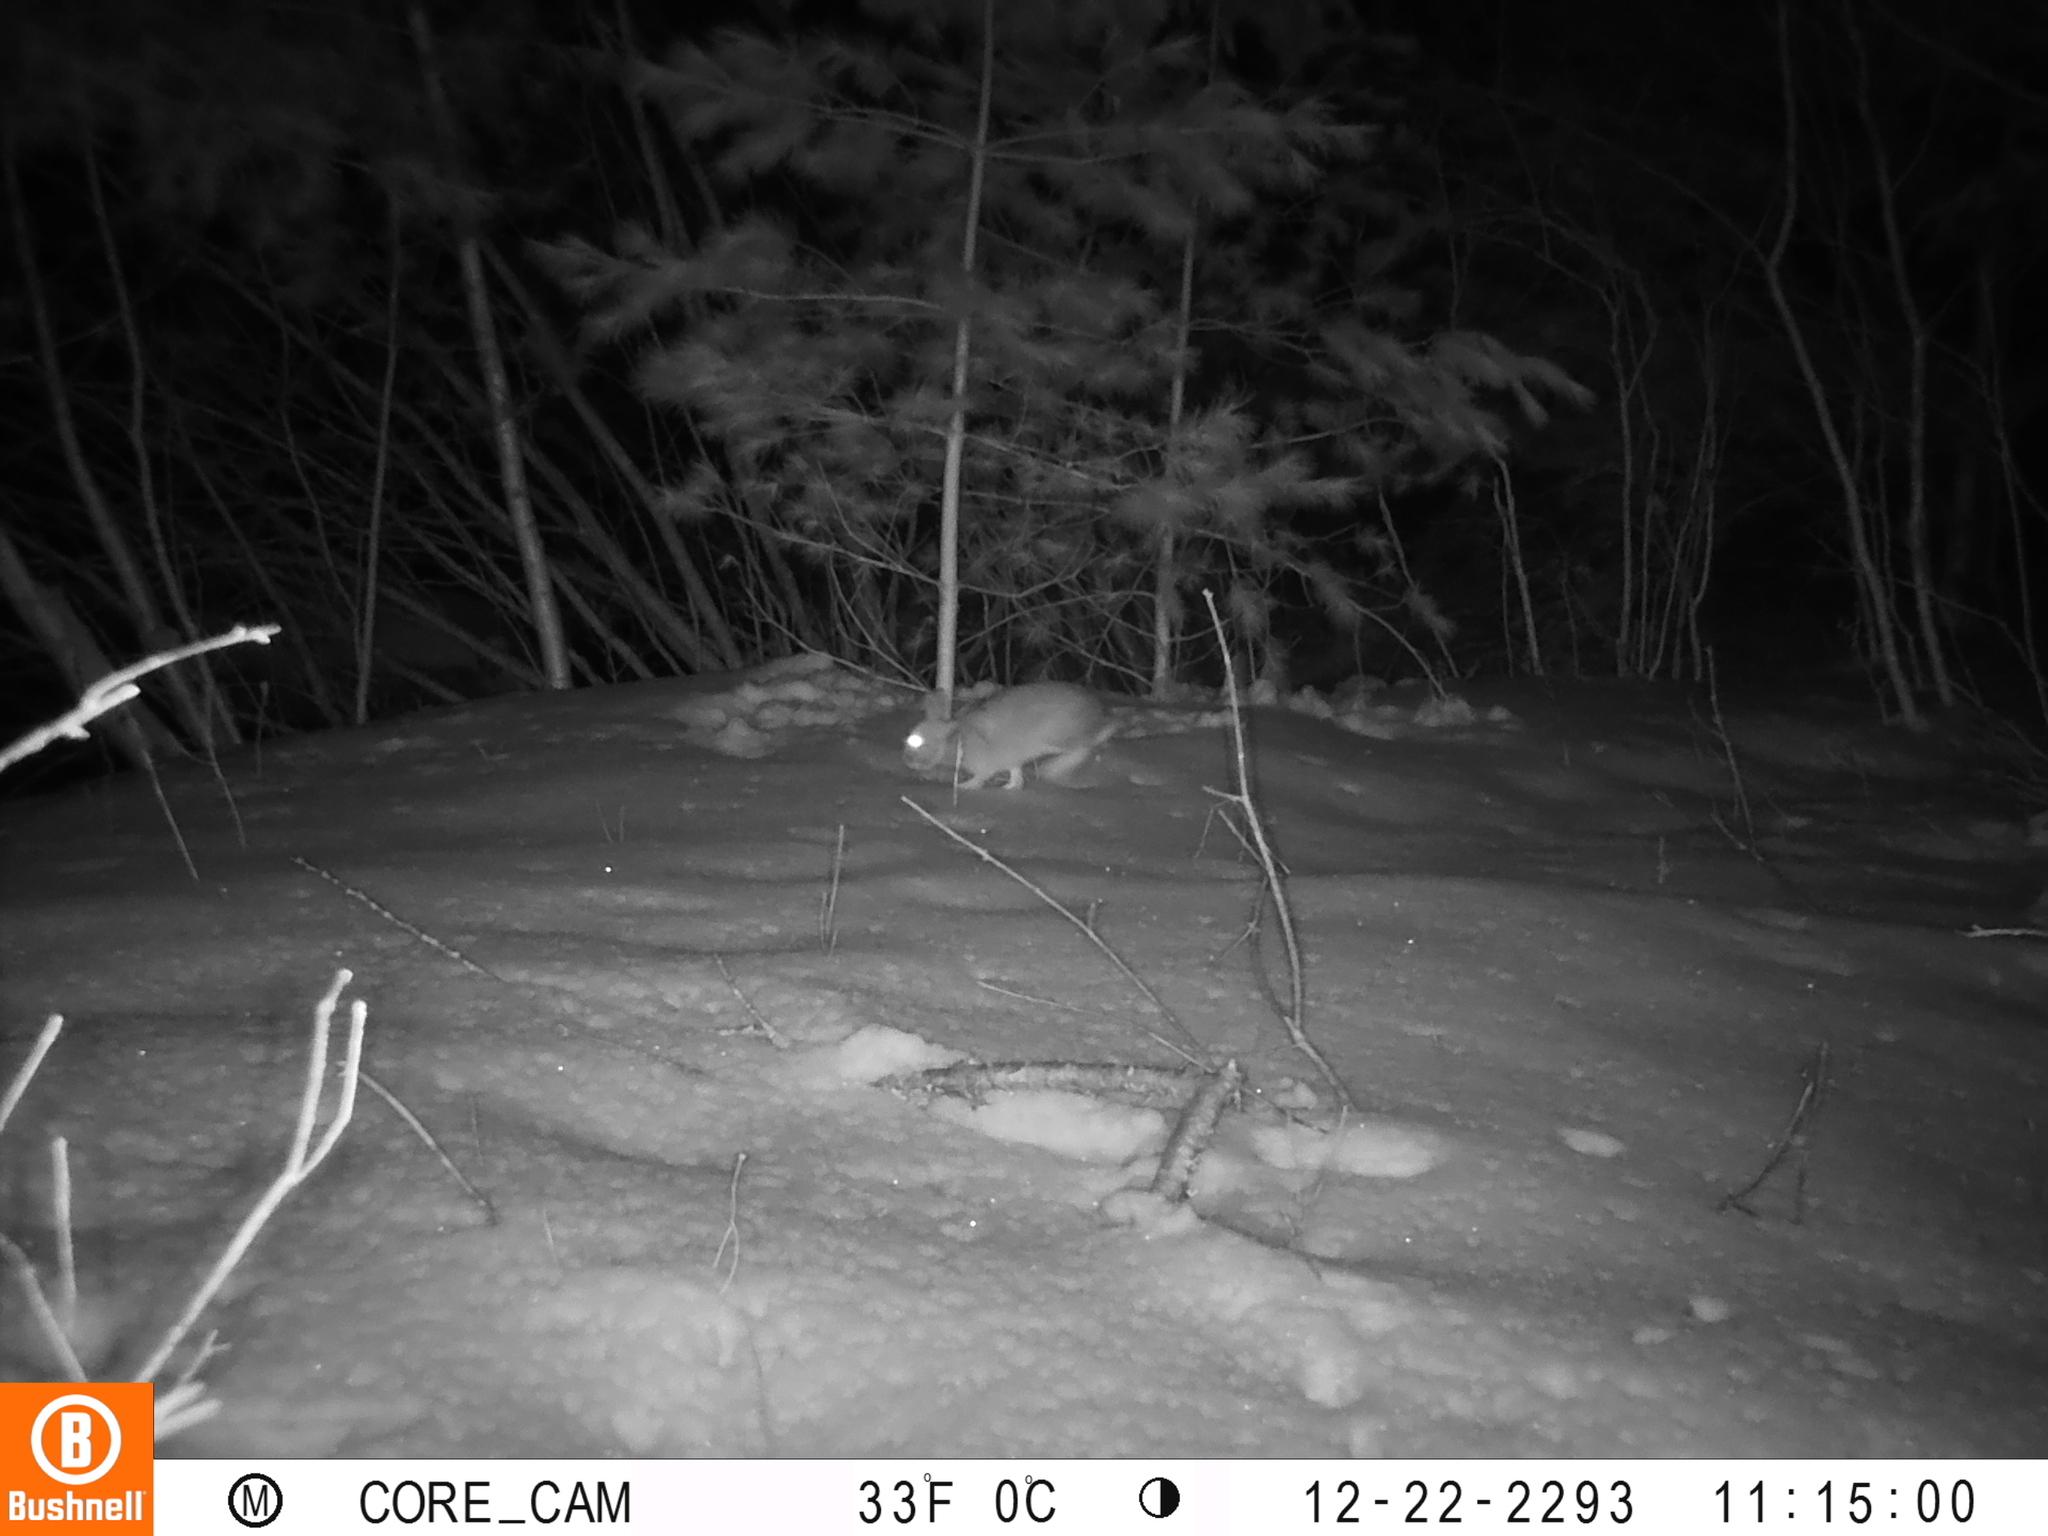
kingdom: Animalia
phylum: Chordata
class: Mammalia
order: Lagomorpha
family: Leporidae
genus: Sylvilagus
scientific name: Sylvilagus floridanus
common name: Eastern cottontail
